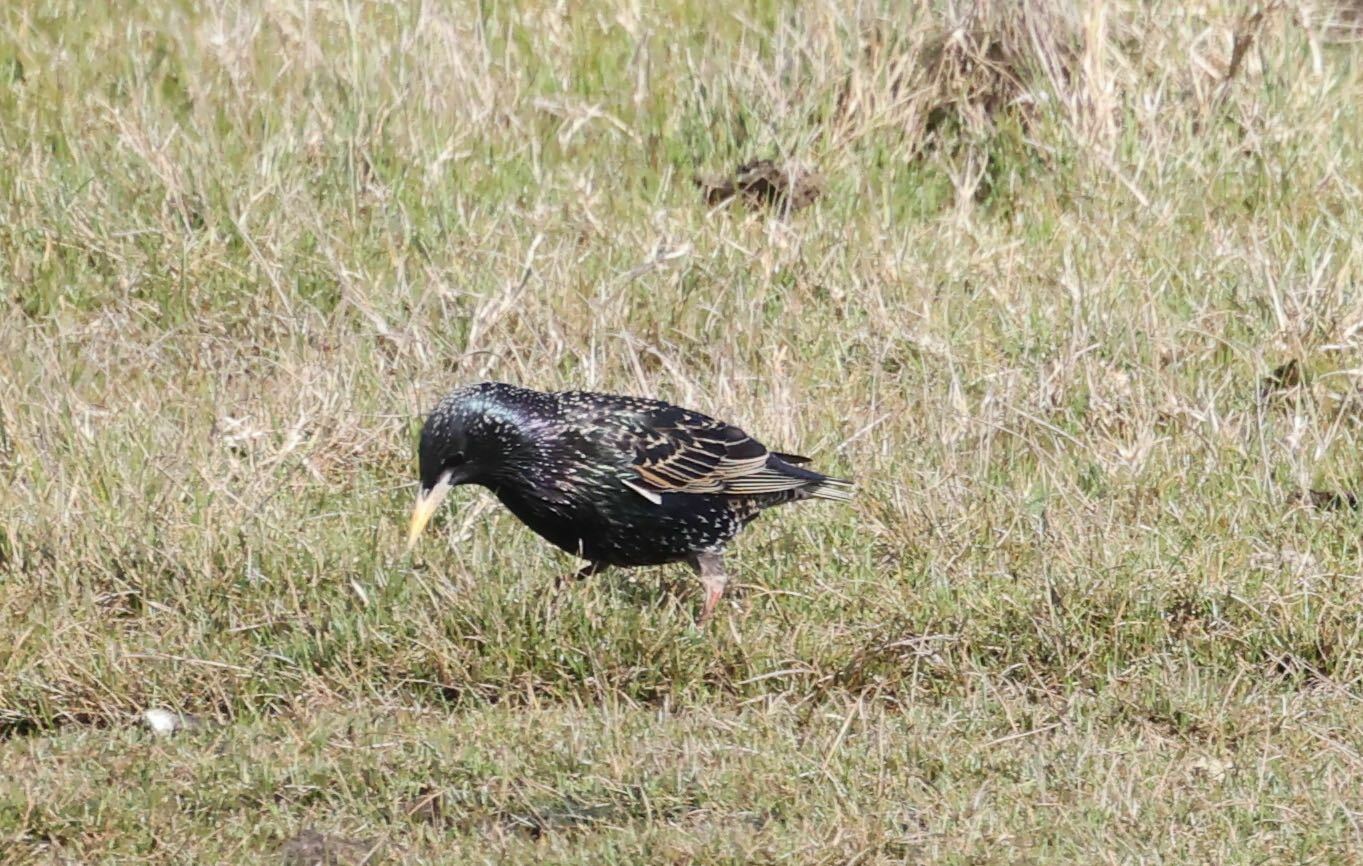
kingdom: Animalia
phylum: Chordata
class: Aves
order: Passeriformes
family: Sturnidae
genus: Sturnus
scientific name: Sturnus vulgaris
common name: Common starling
